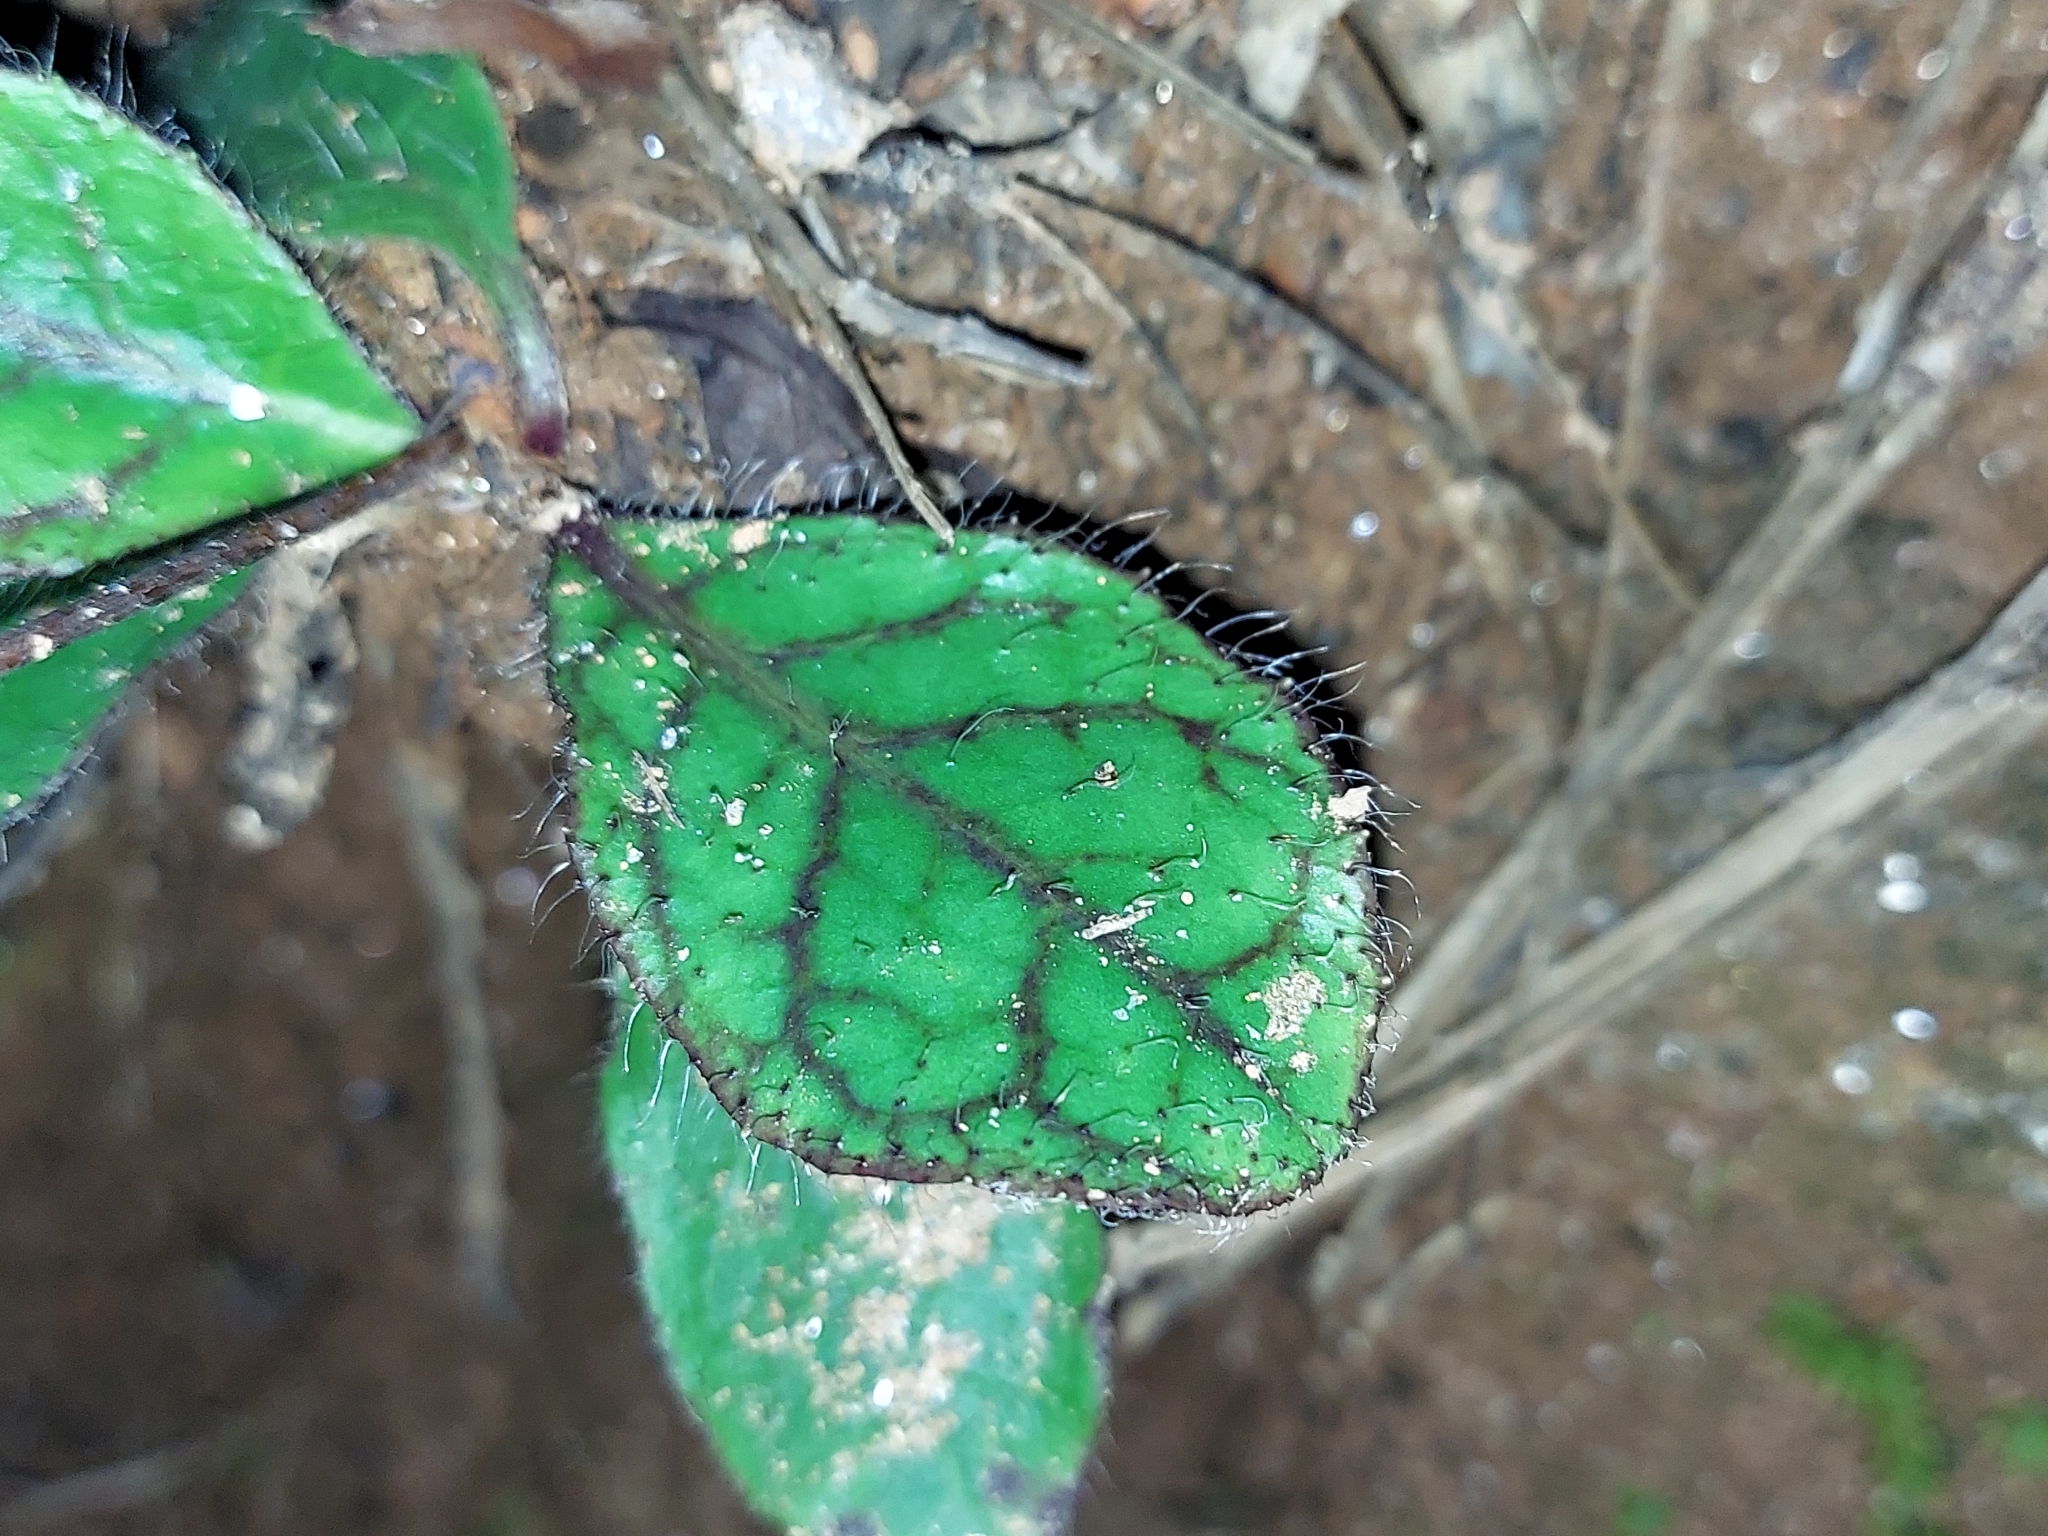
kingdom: Plantae
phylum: Tracheophyta
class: Magnoliopsida
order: Asterales
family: Asteraceae
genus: Hieracium
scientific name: Hieracium venosum
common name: Rattlesnake hawkweed
